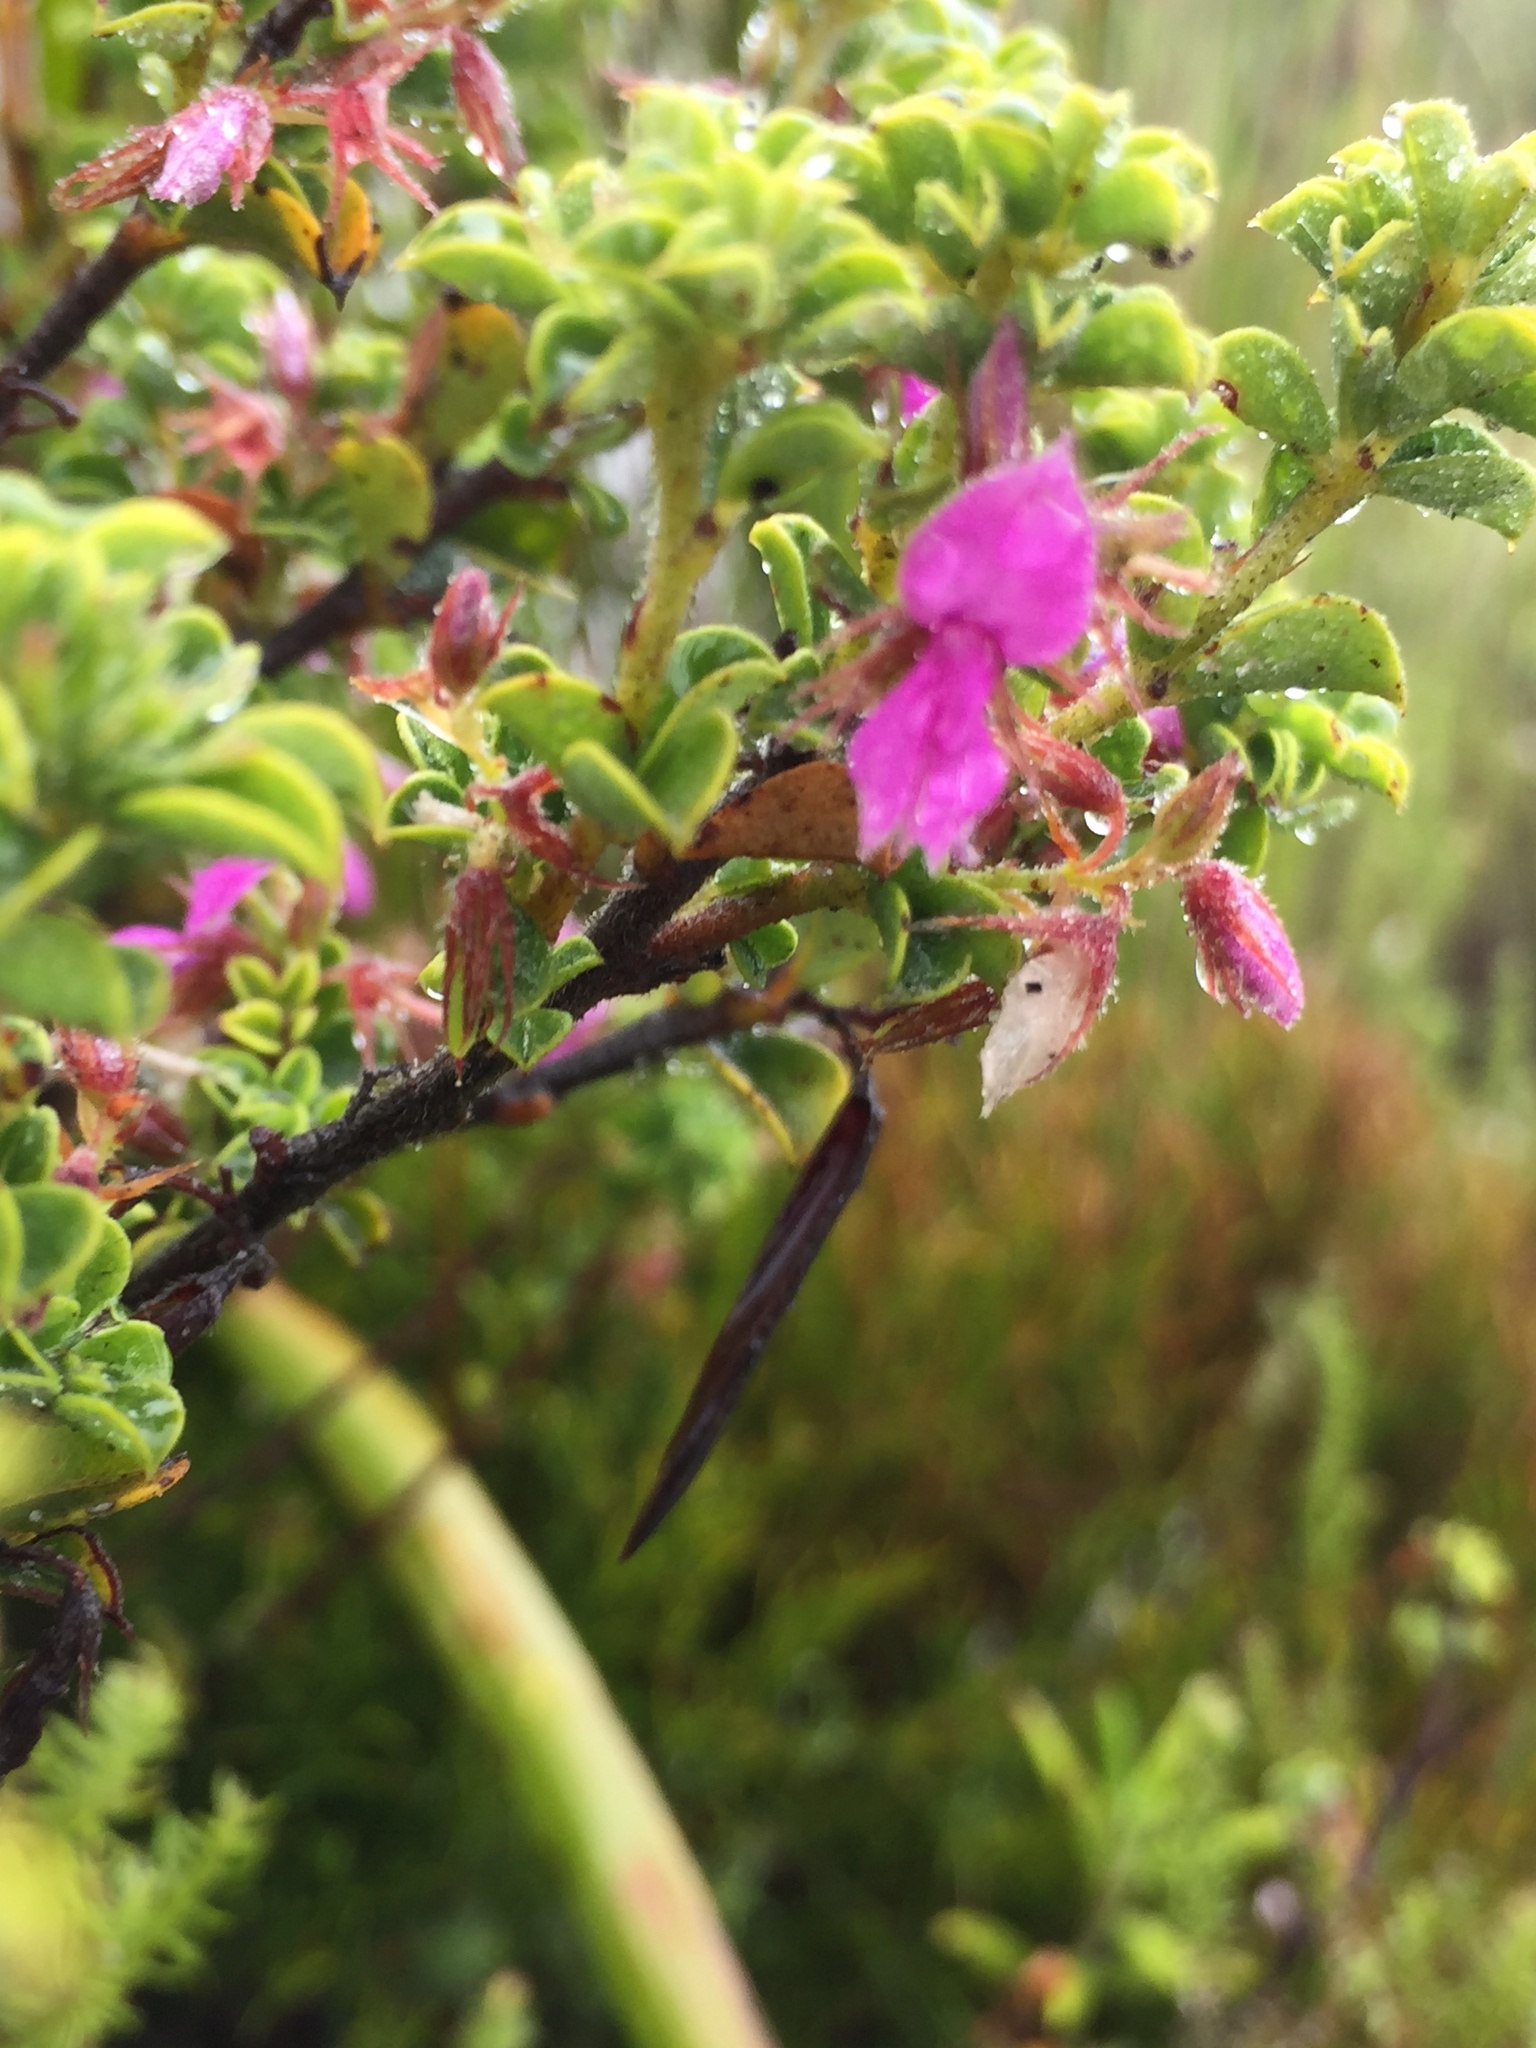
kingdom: Plantae
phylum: Tracheophyta
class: Magnoliopsida
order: Fabales
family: Fabaceae
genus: Indigofera
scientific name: Indigofera candolleana
